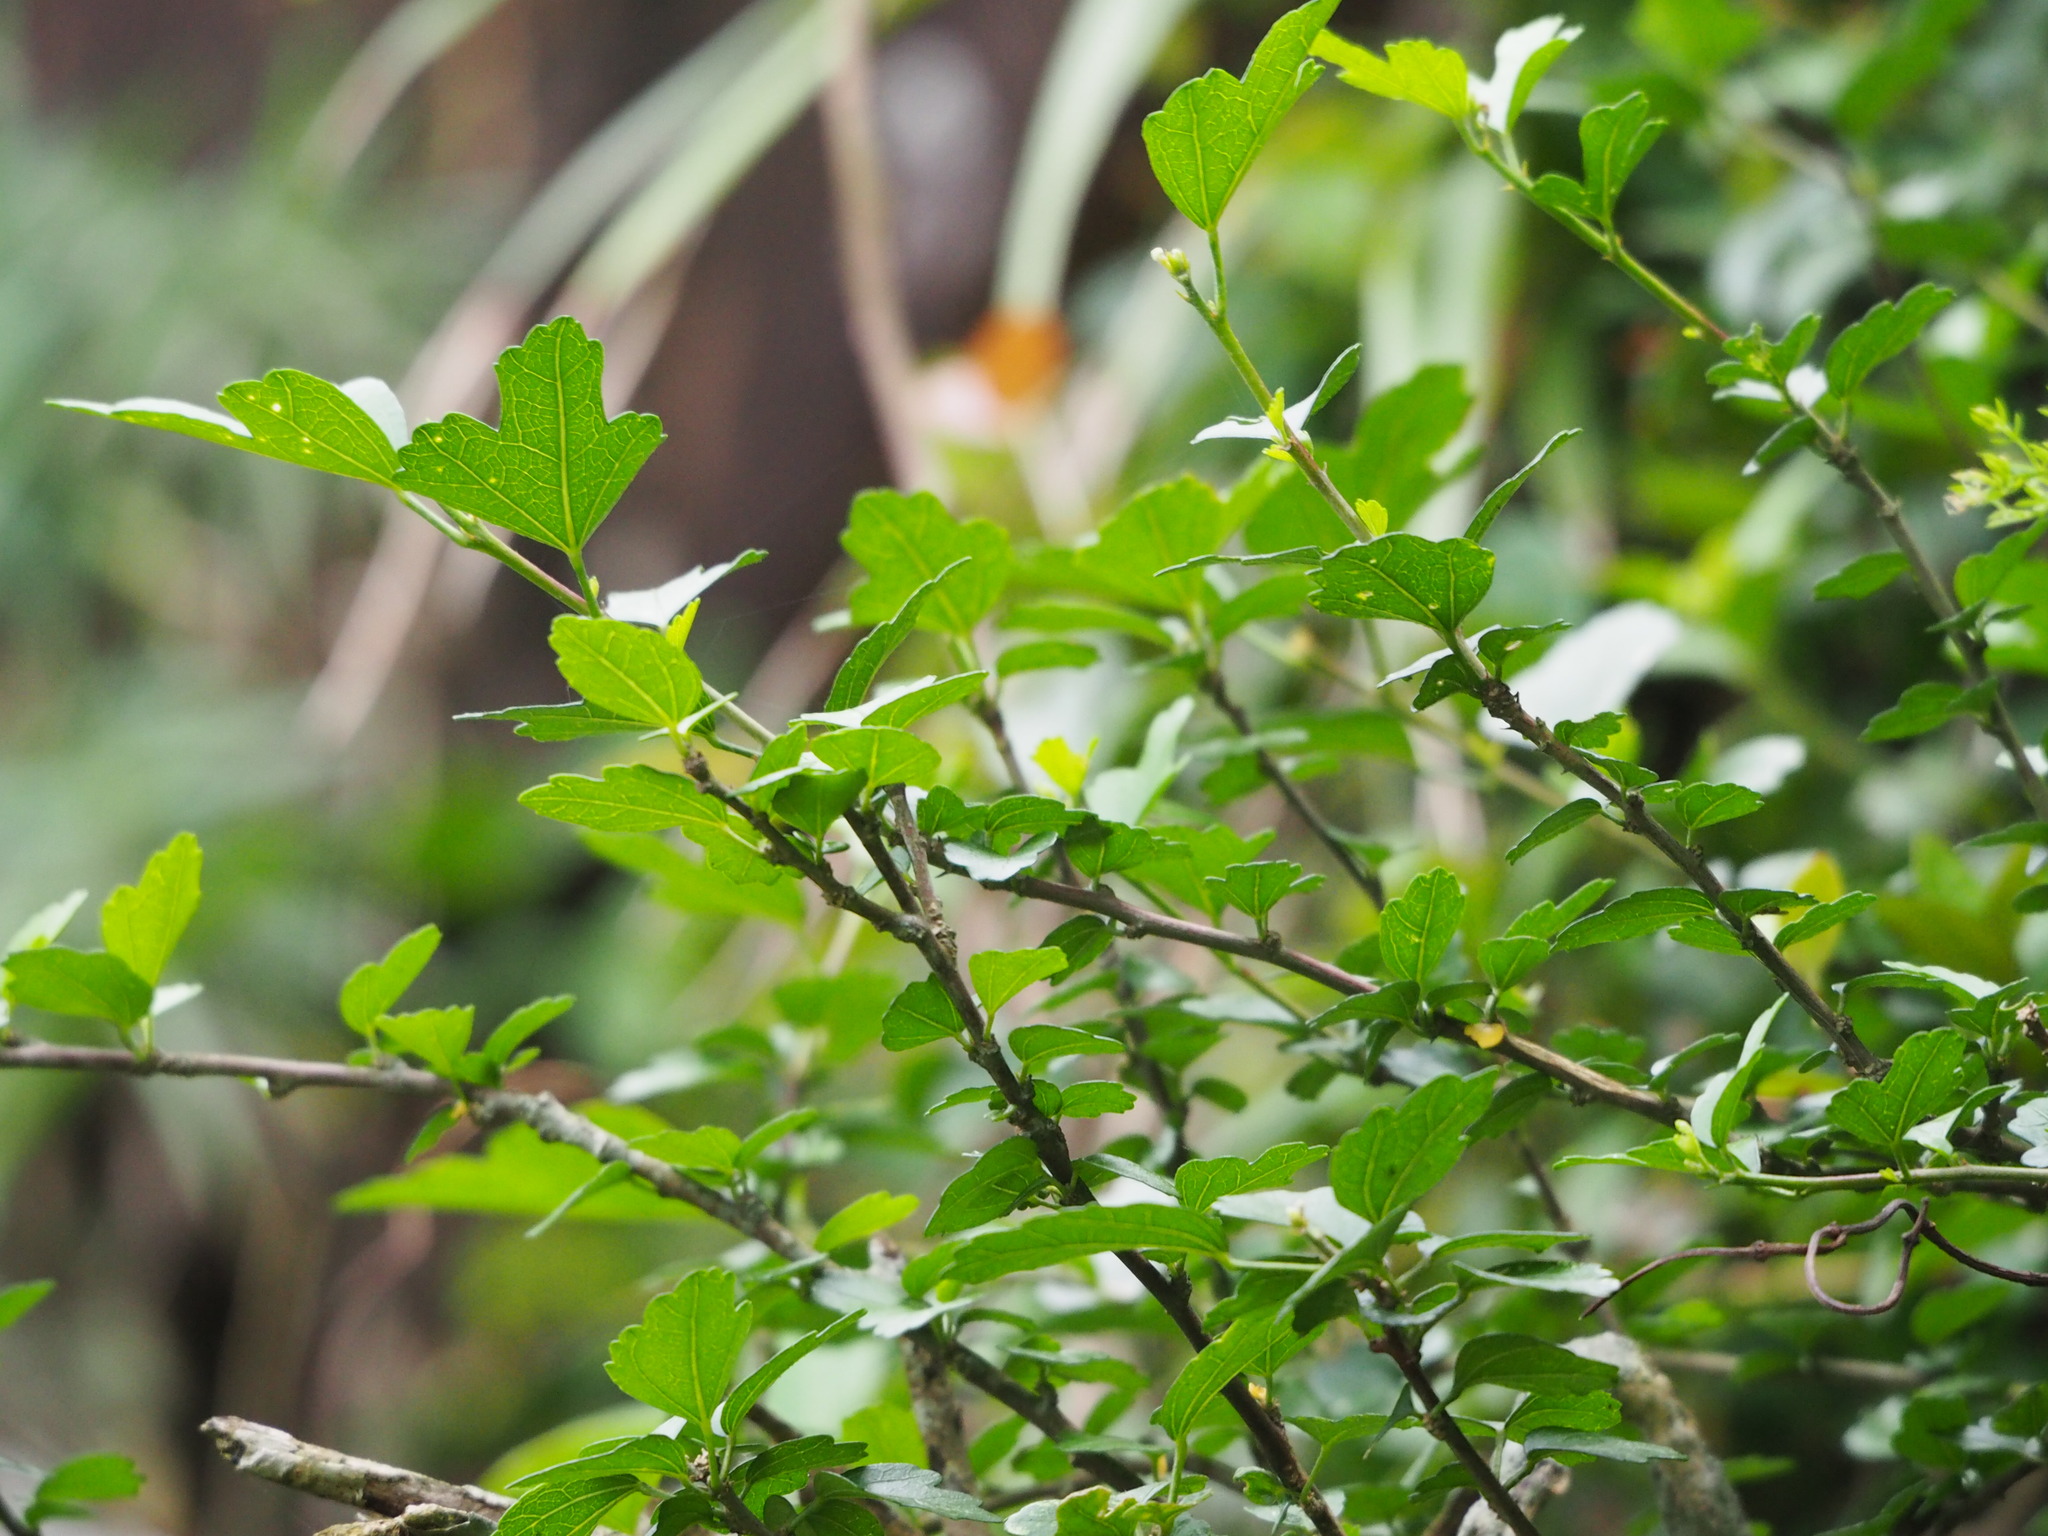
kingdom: Plantae
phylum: Tracheophyta
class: Magnoliopsida
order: Malvales
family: Malvaceae
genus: Hibiscus
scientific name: Hibiscus syriacus
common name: Syrian ketmia
